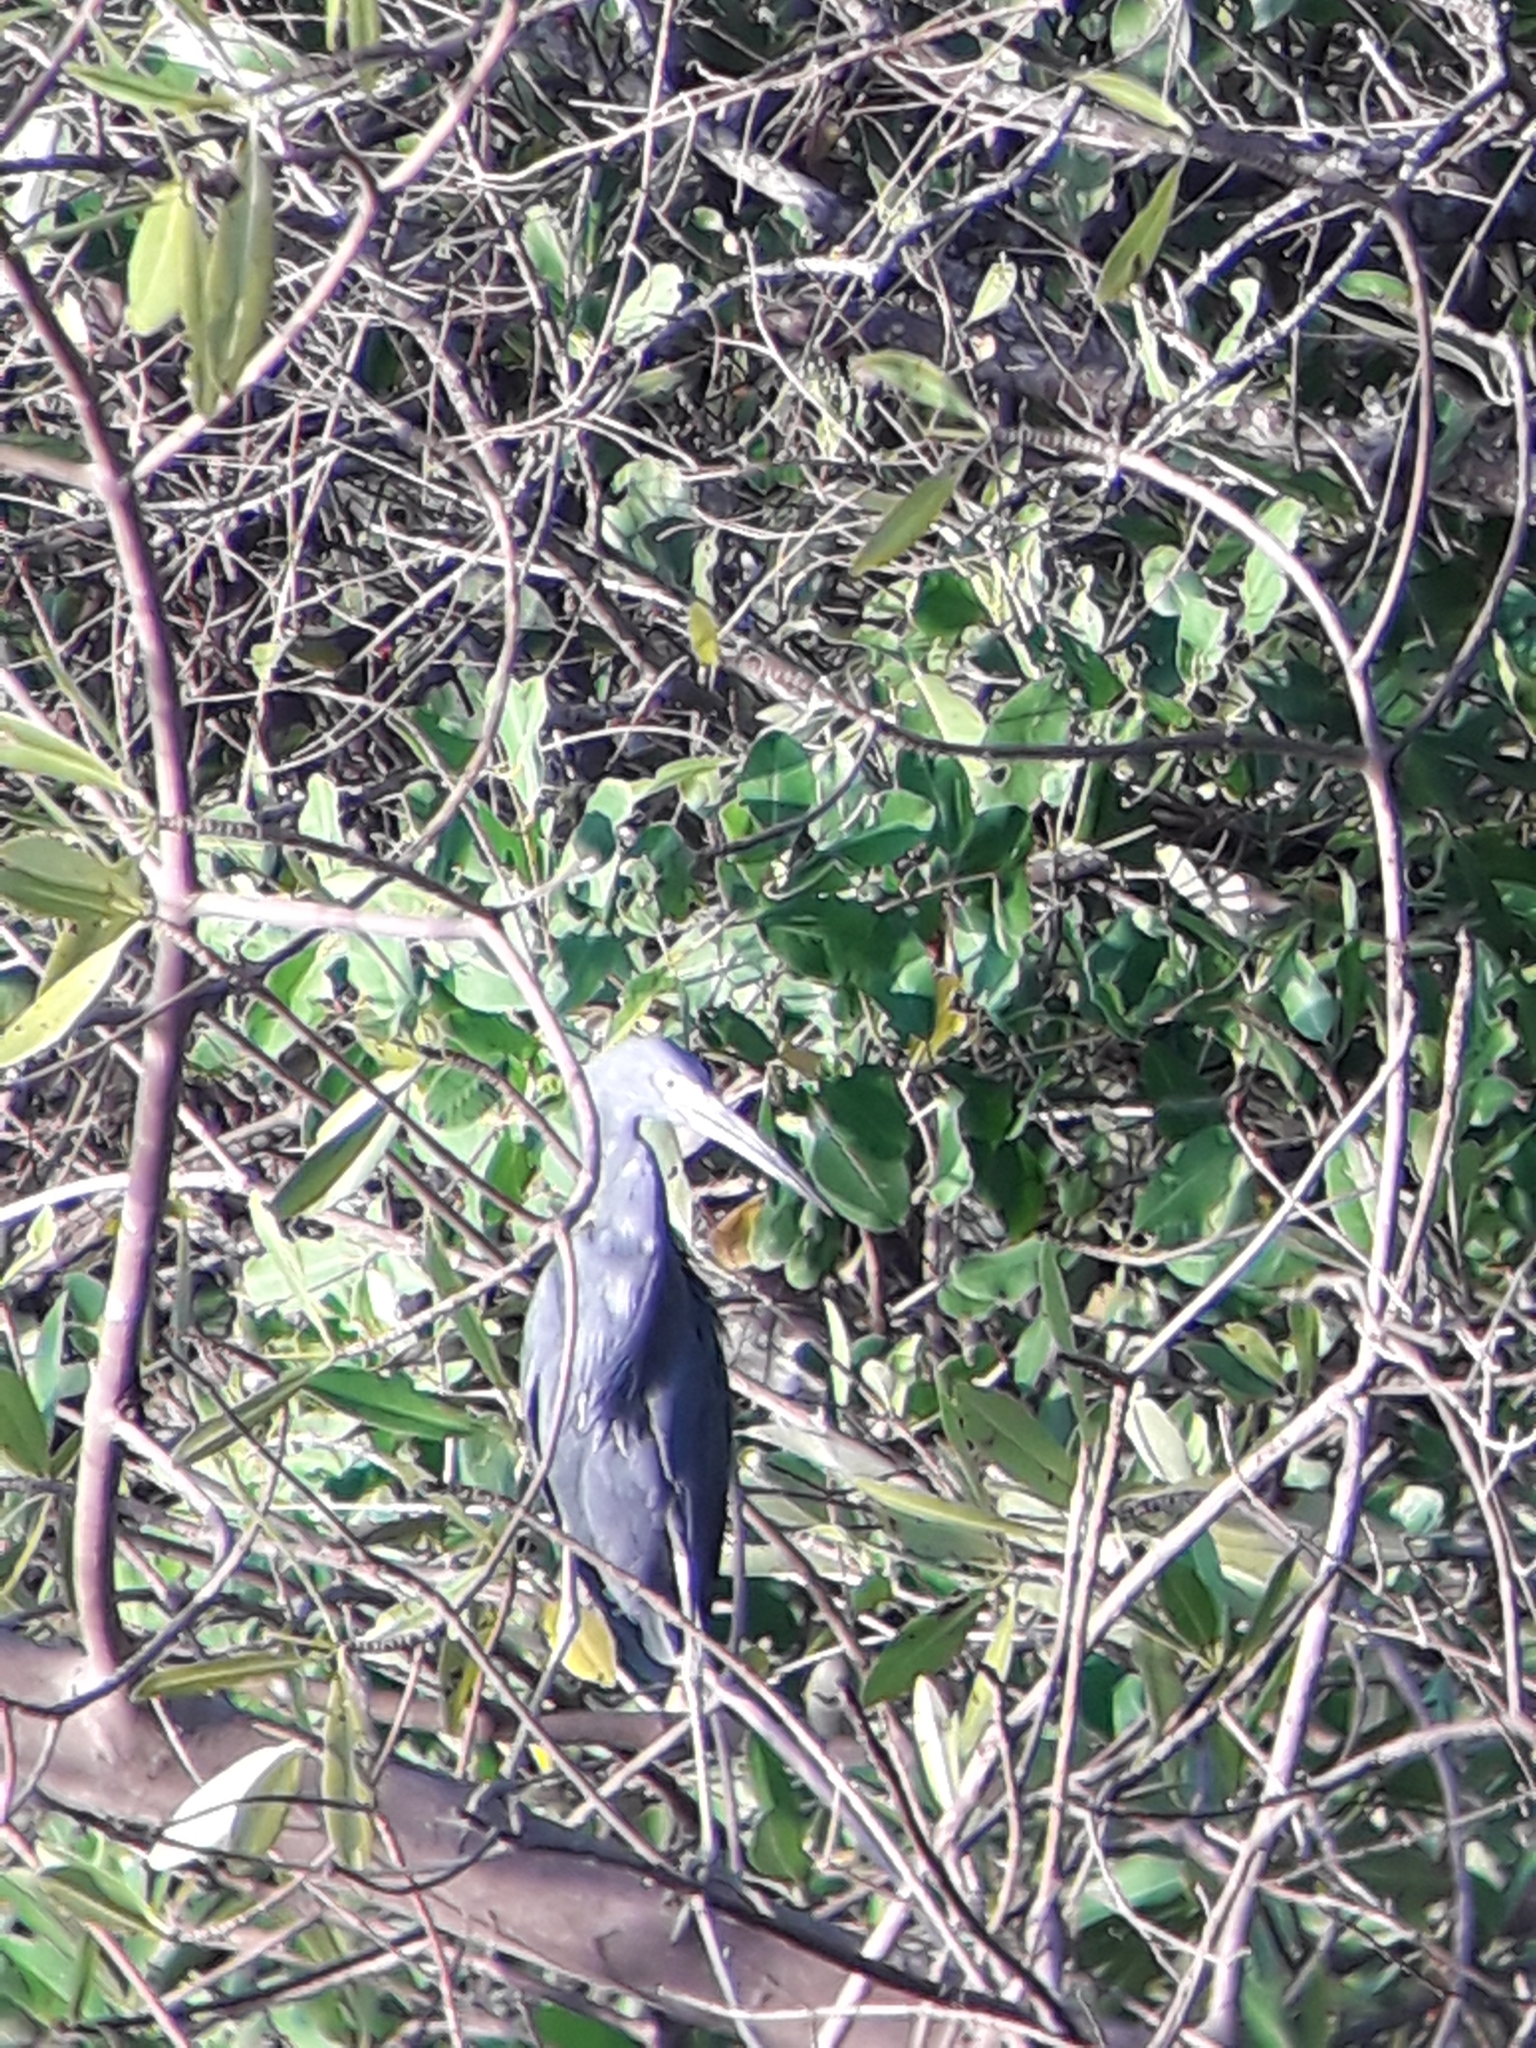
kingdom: Animalia
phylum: Chordata
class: Aves
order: Pelecaniformes
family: Ardeidae
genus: Egretta
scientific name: Egretta caerulea
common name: Little blue heron
